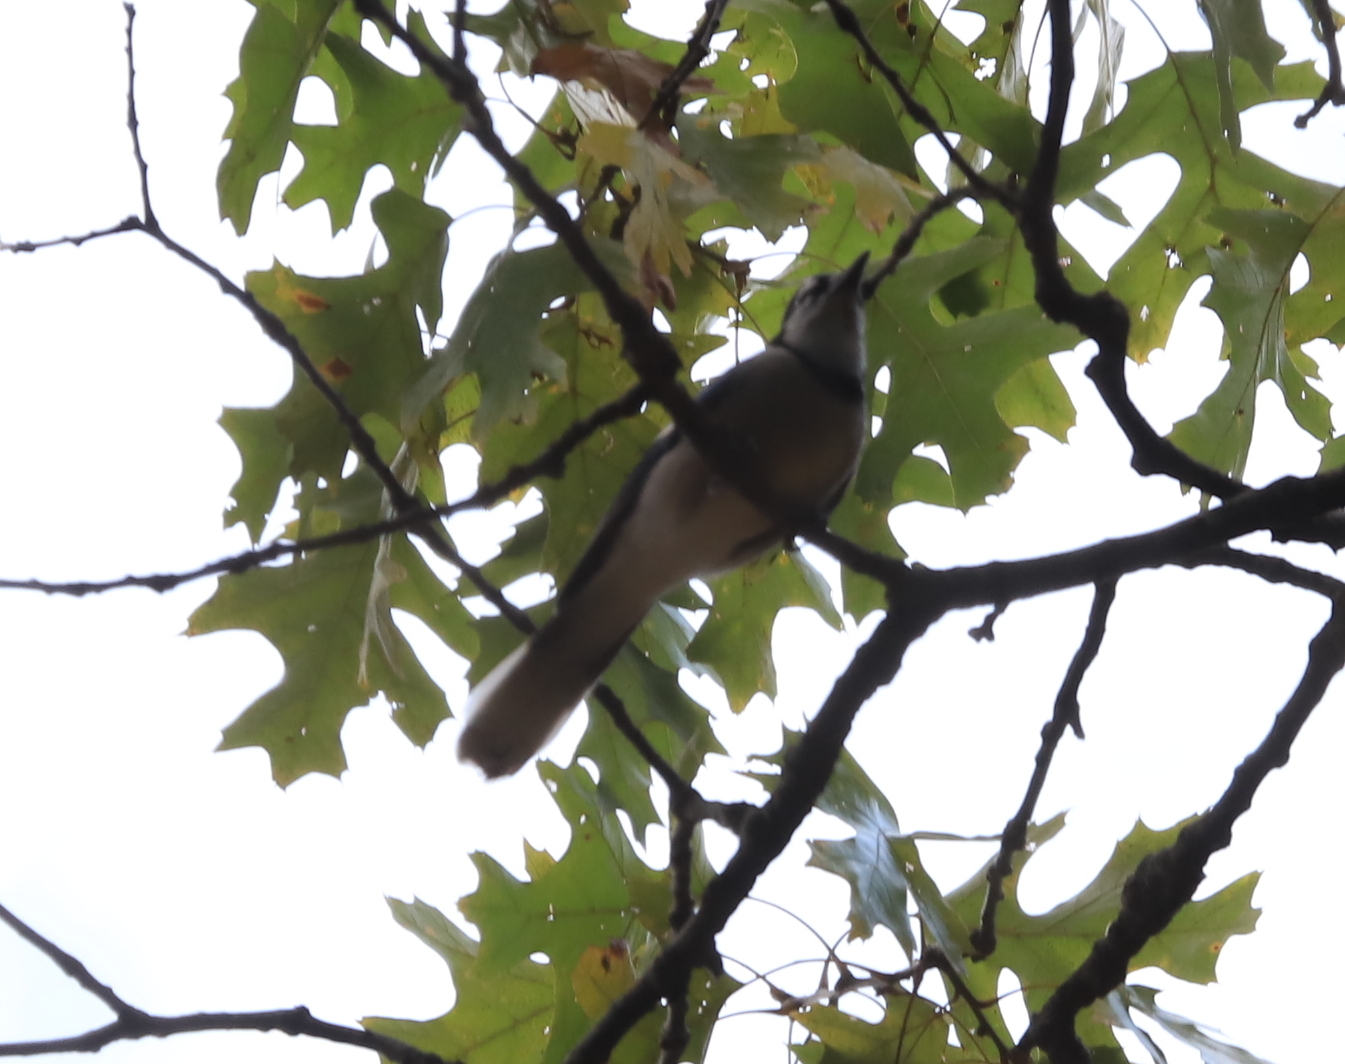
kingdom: Animalia
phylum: Chordata
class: Aves
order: Passeriformes
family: Corvidae
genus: Cyanocitta
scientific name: Cyanocitta cristata
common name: Blue jay
